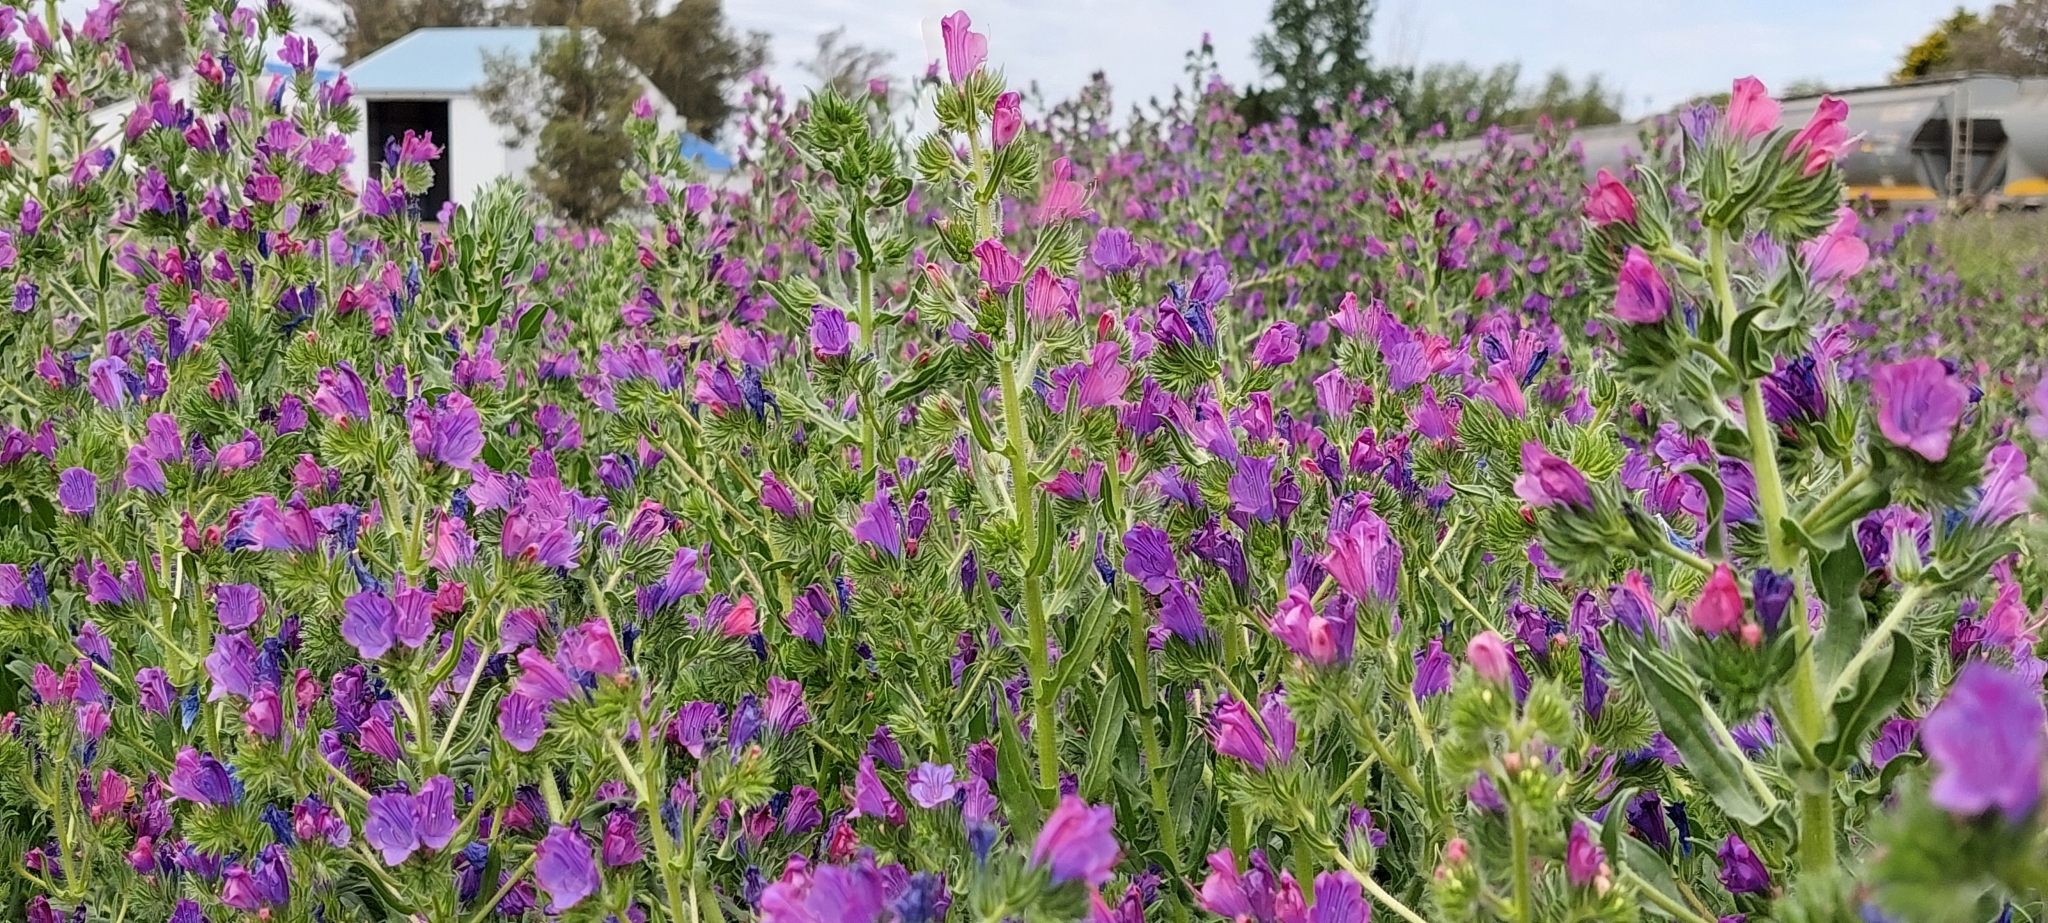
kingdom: Plantae
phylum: Tracheophyta
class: Magnoliopsida
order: Boraginales
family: Boraginaceae
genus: Echium
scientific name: Echium plantagineum
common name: Purple viper's-bugloss
